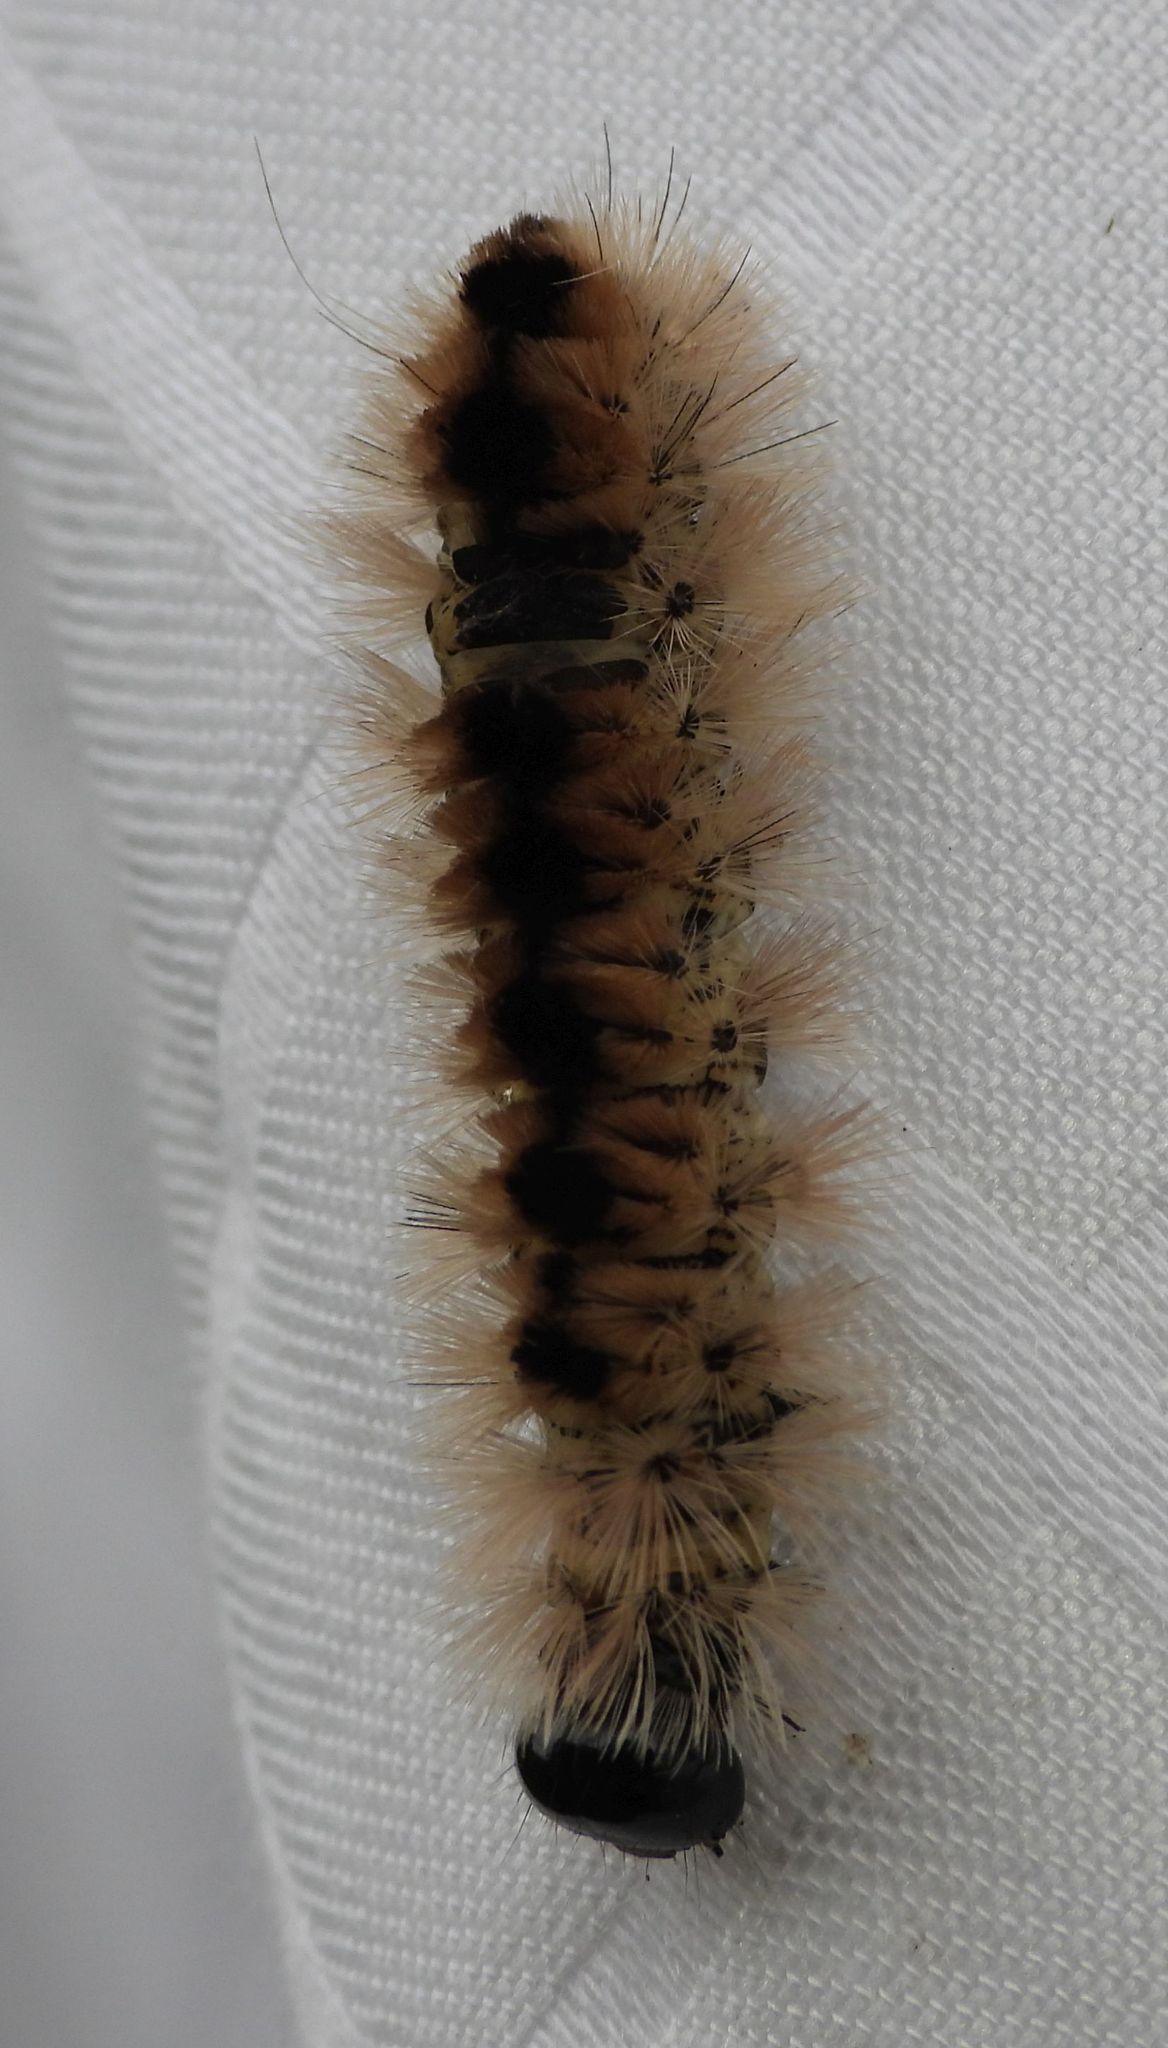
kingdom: Animalia
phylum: Arthropoda
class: Insecta
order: Lepidoptera
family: Erebidae
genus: Lophocampa
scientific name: Lophocampa caryae
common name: Hickory tussock moth
